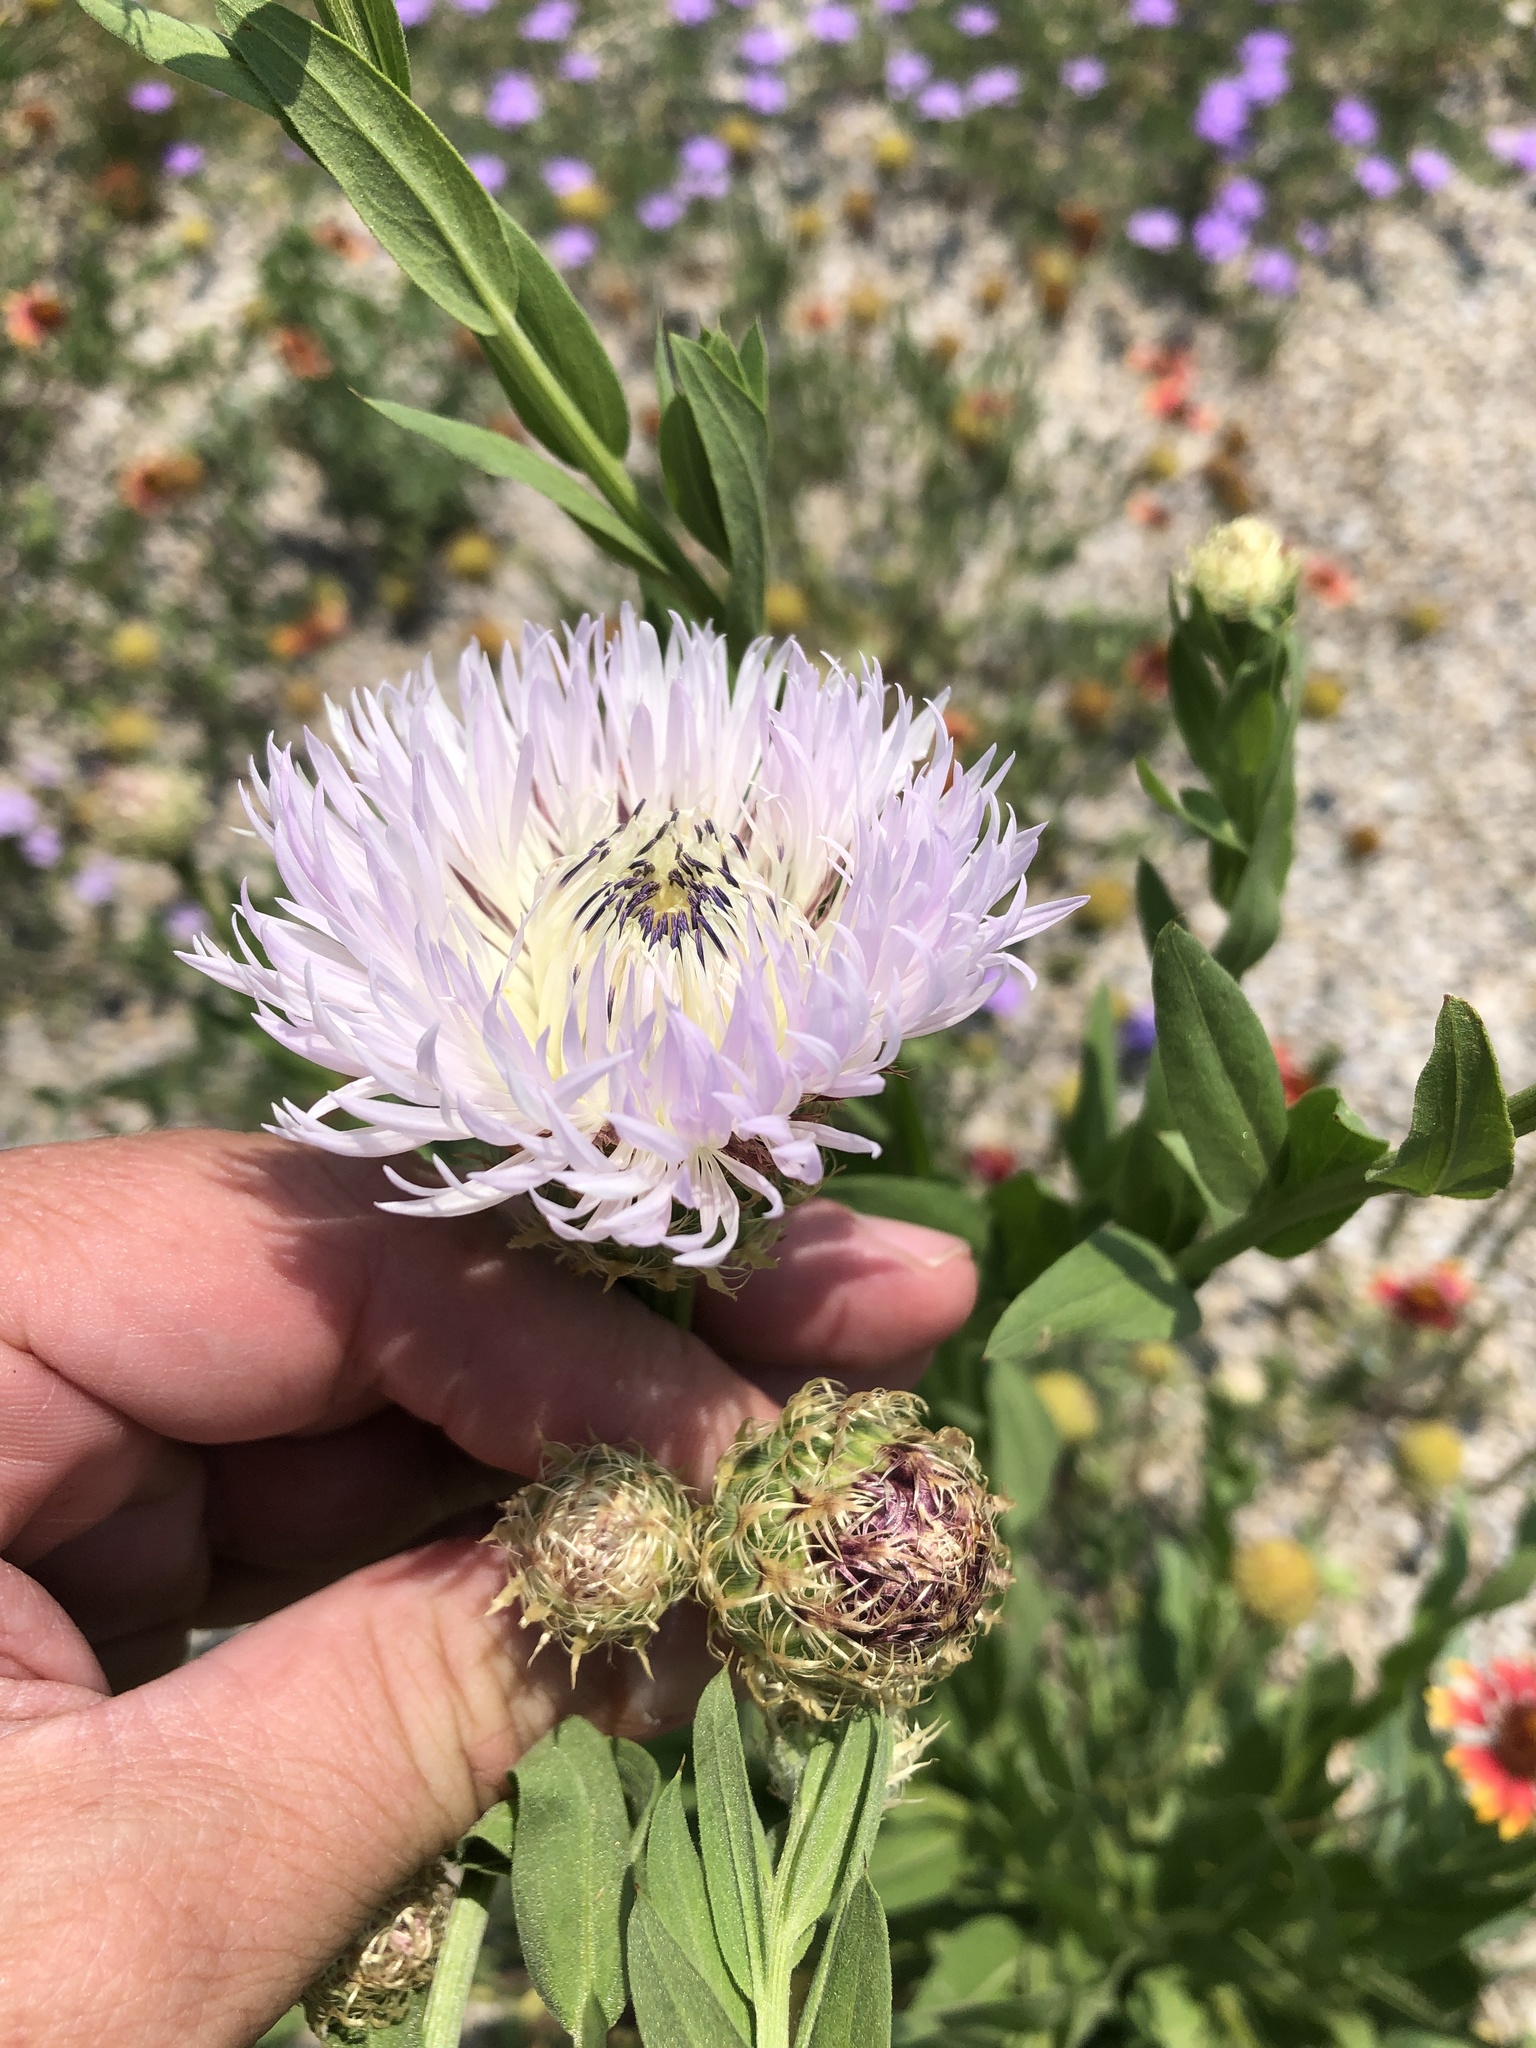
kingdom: Plantae
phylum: Tracheophyta
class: Magnoliopsida
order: Asterales
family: Asteraceae
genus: Plectocephalus
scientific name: Plectocephalus americanus
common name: American basket-flower
